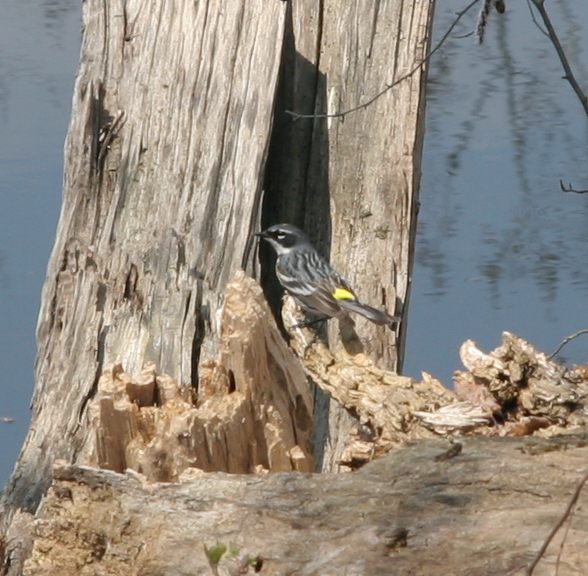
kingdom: Animalia
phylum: Chordata
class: Aves
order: Passeriformes
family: Parulidae
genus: Setophaga
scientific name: Setophaga coronata
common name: Myrtle warbler
